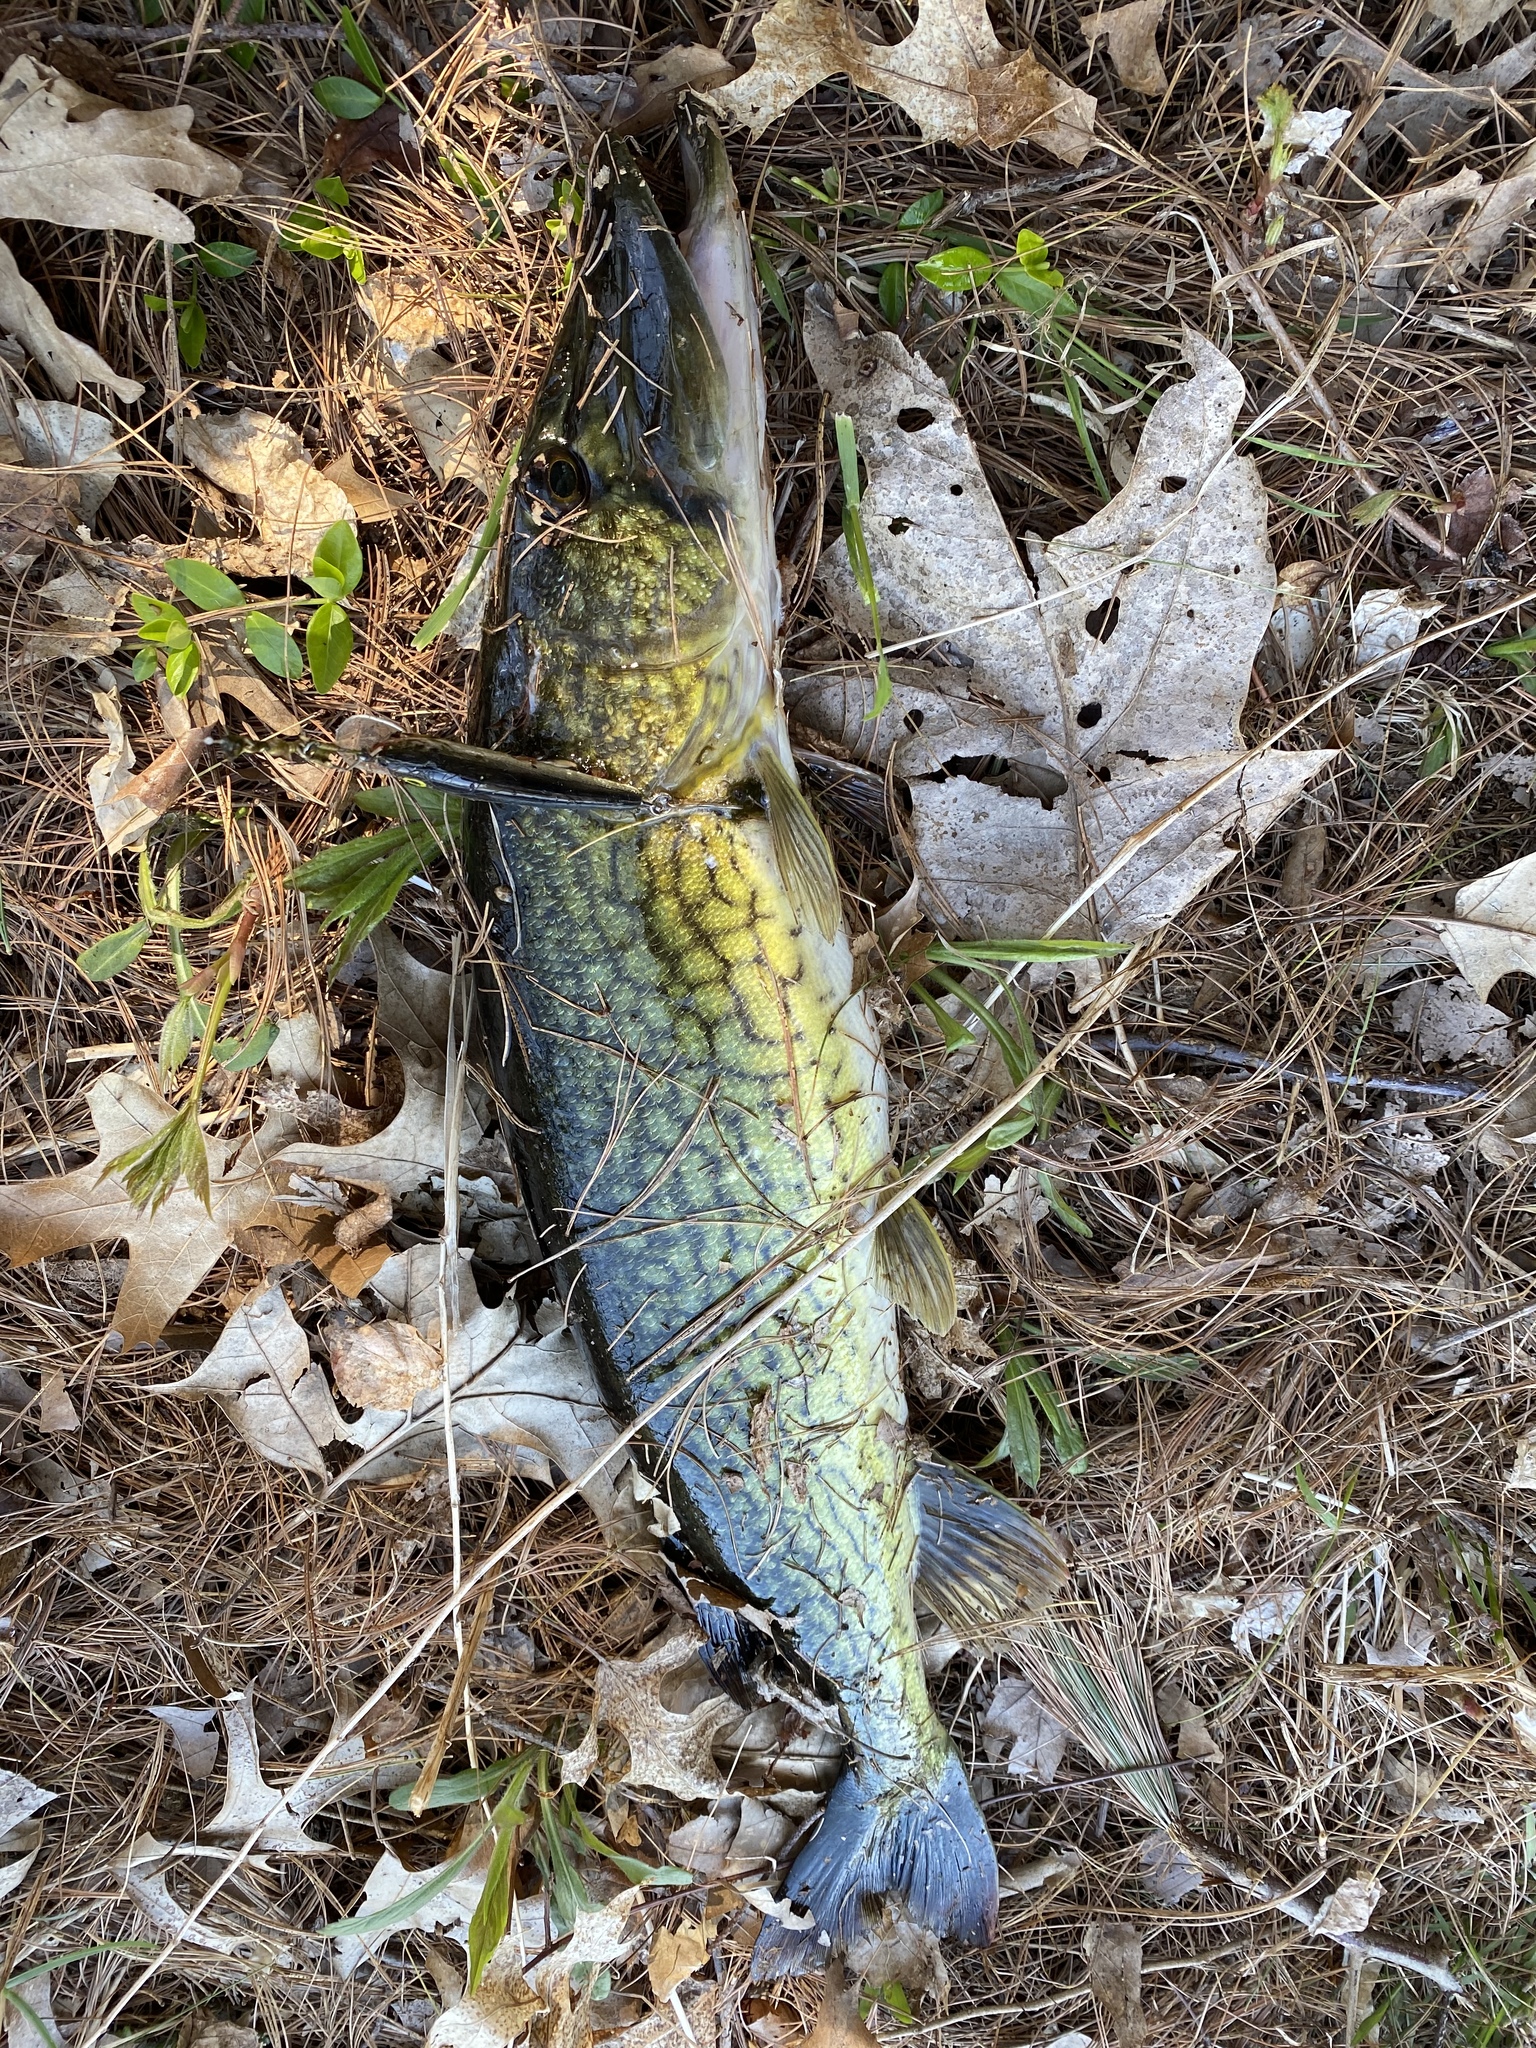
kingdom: Animalia
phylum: Chordata
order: Esociformes
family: Esocidae
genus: Esox
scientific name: Esox niger
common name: Chain pickerel
